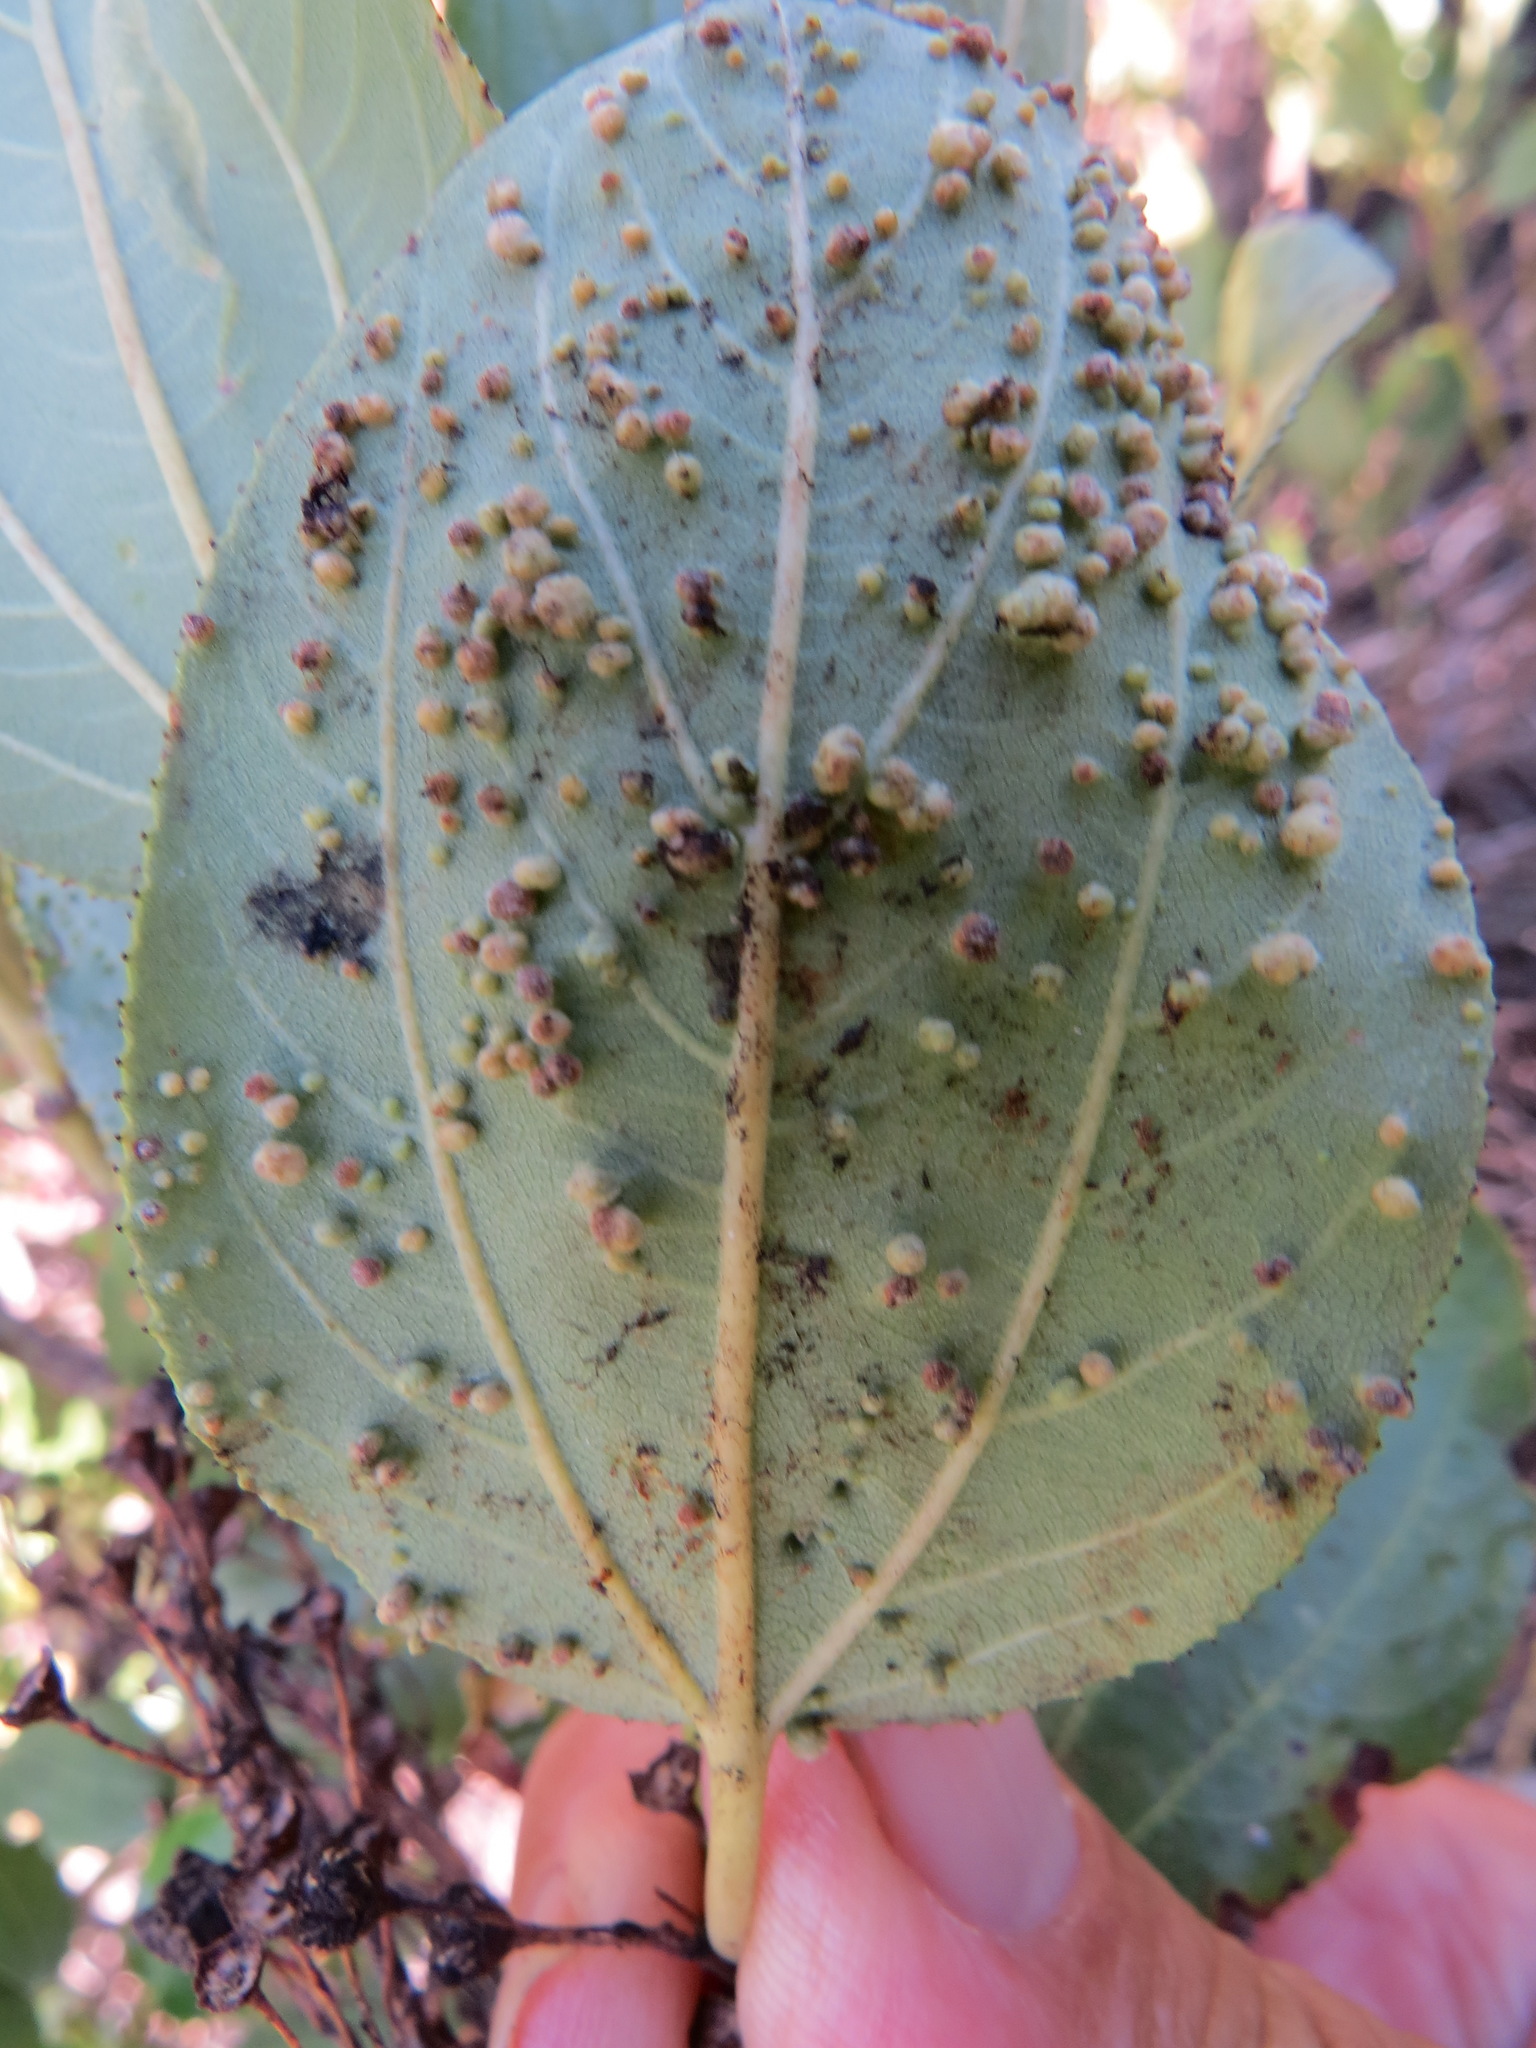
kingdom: Animalia
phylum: Arthropoda
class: Arachnida
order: Trombidiformes
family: Eriophyidae
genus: Aceria
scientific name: Aceria
